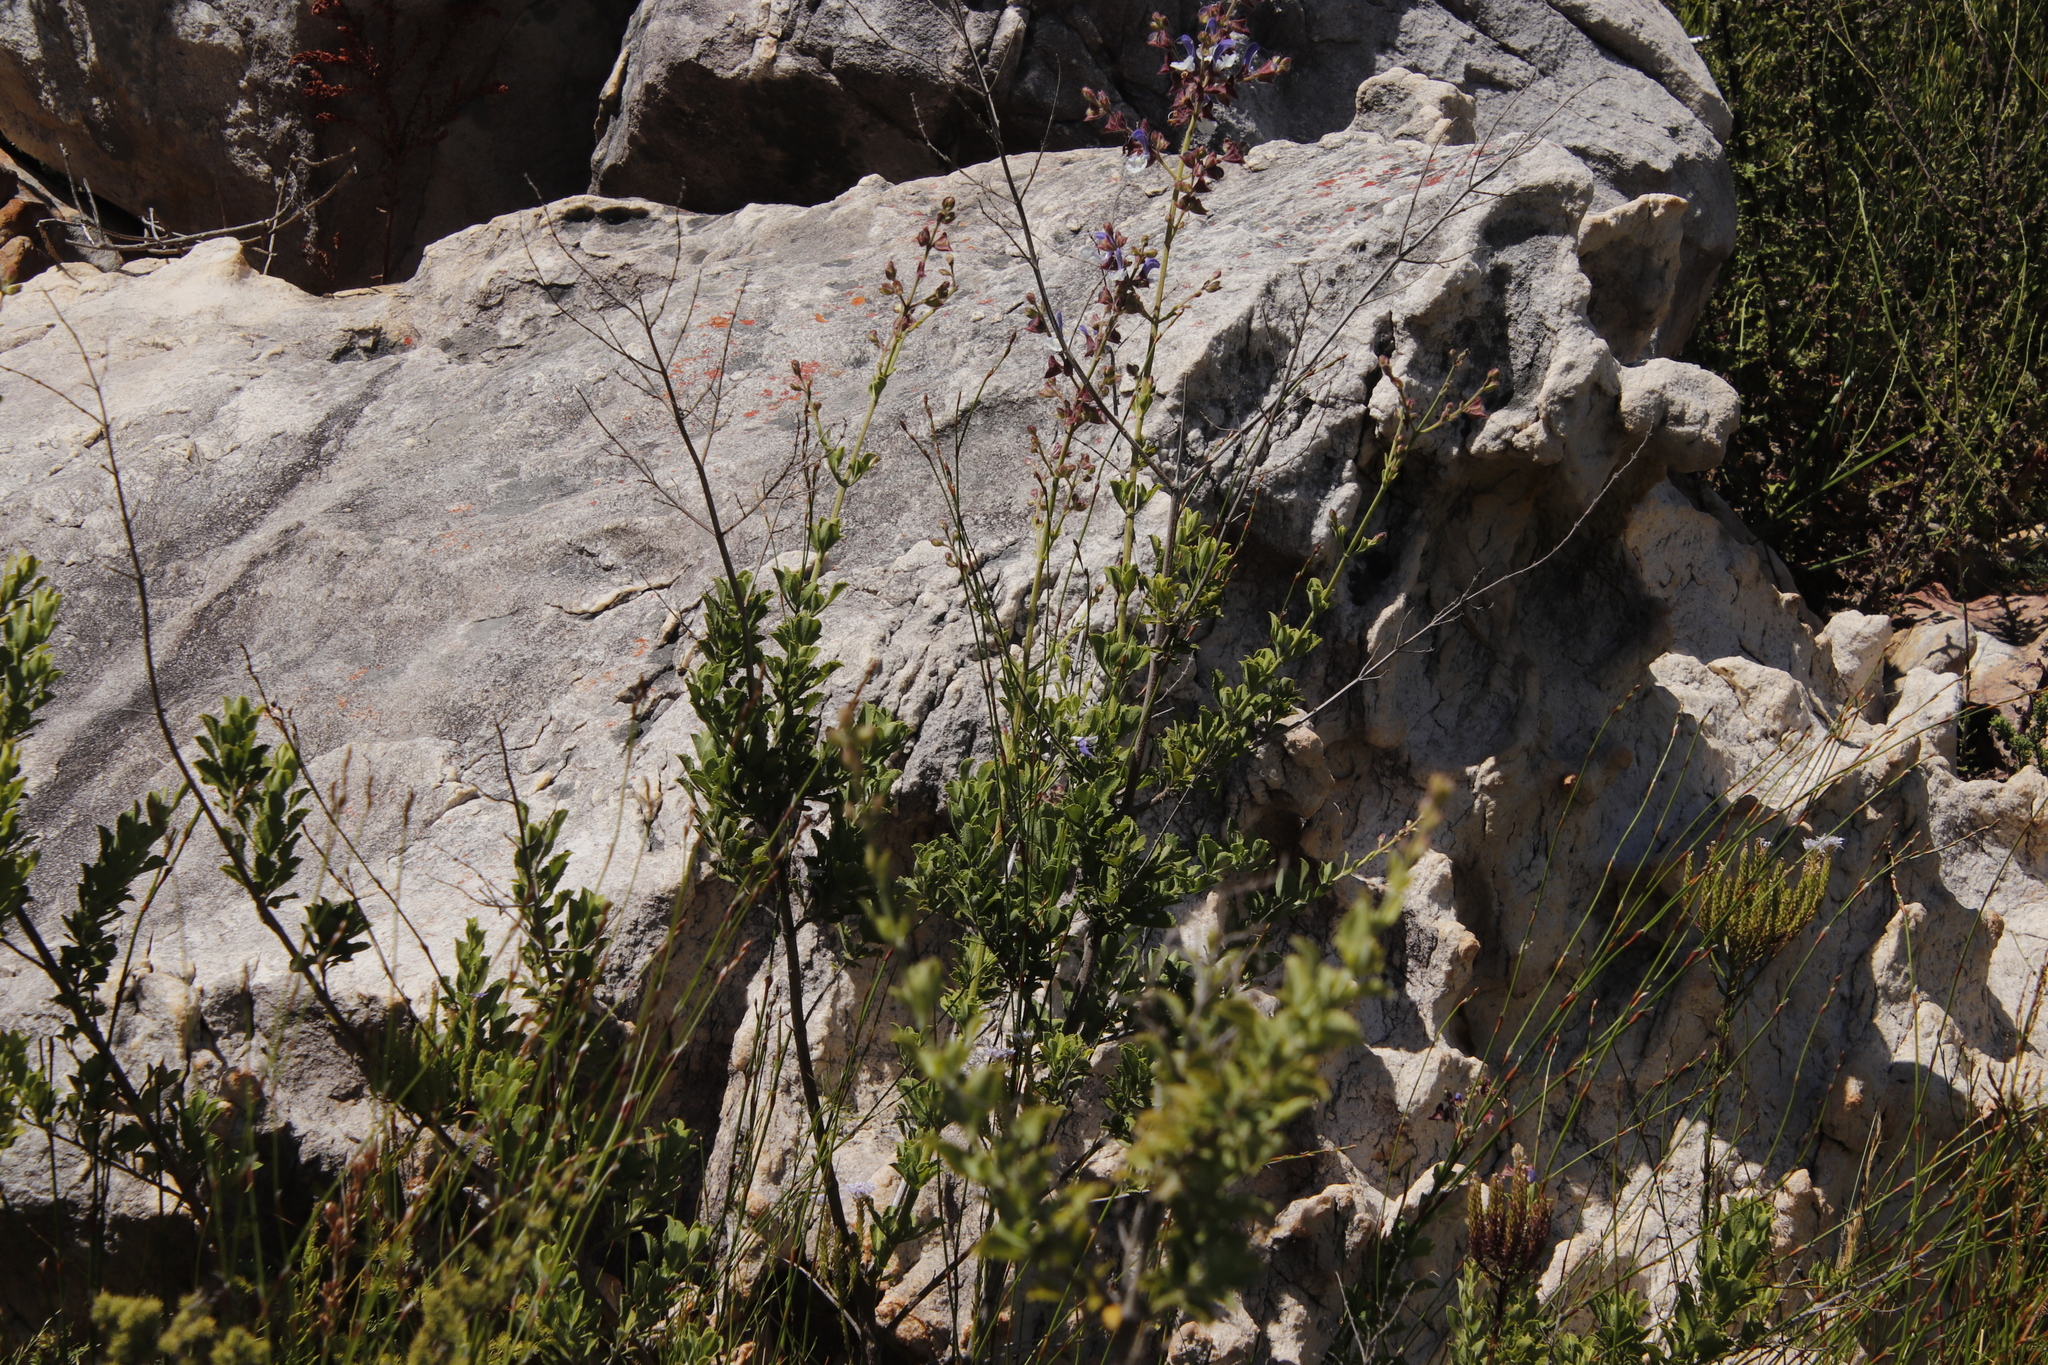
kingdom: Plantae
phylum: Tracheophyta
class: Magnoliopsida
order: Lamiales
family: Lamiaceae
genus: Salvia
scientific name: Salvia chamelaeagnea
